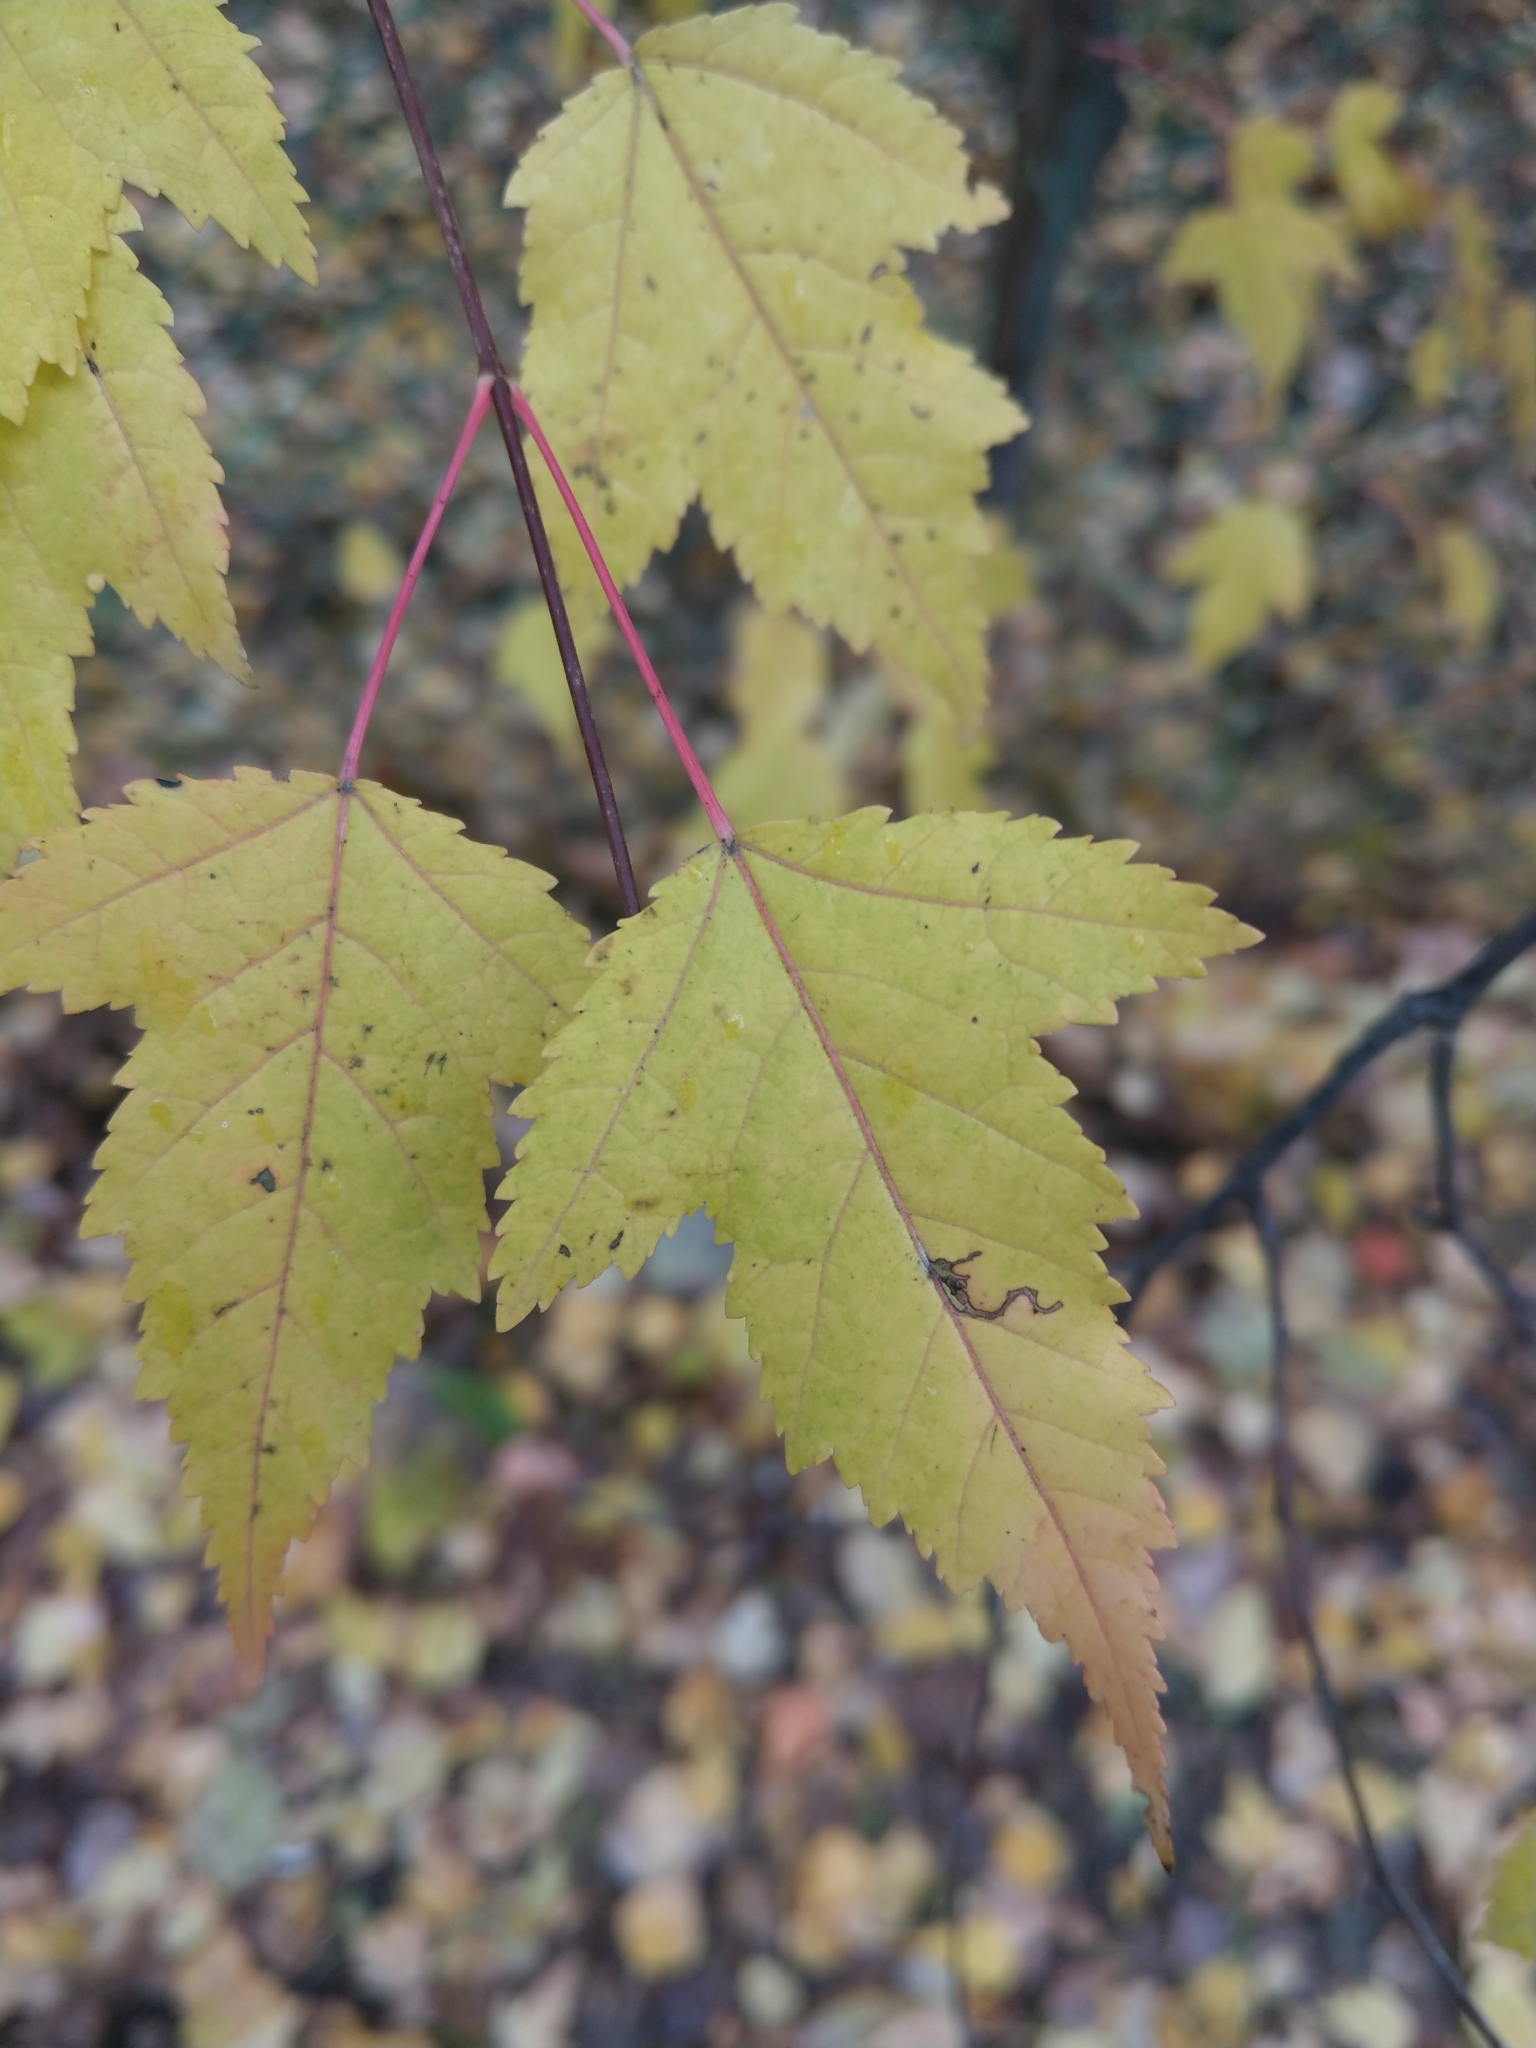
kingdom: Plantae
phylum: Tracheophyta
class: Magnoliopsida
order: Sapindales
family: Sapindaceae
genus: Acer
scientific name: Acer tataricum
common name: Tartar maple
